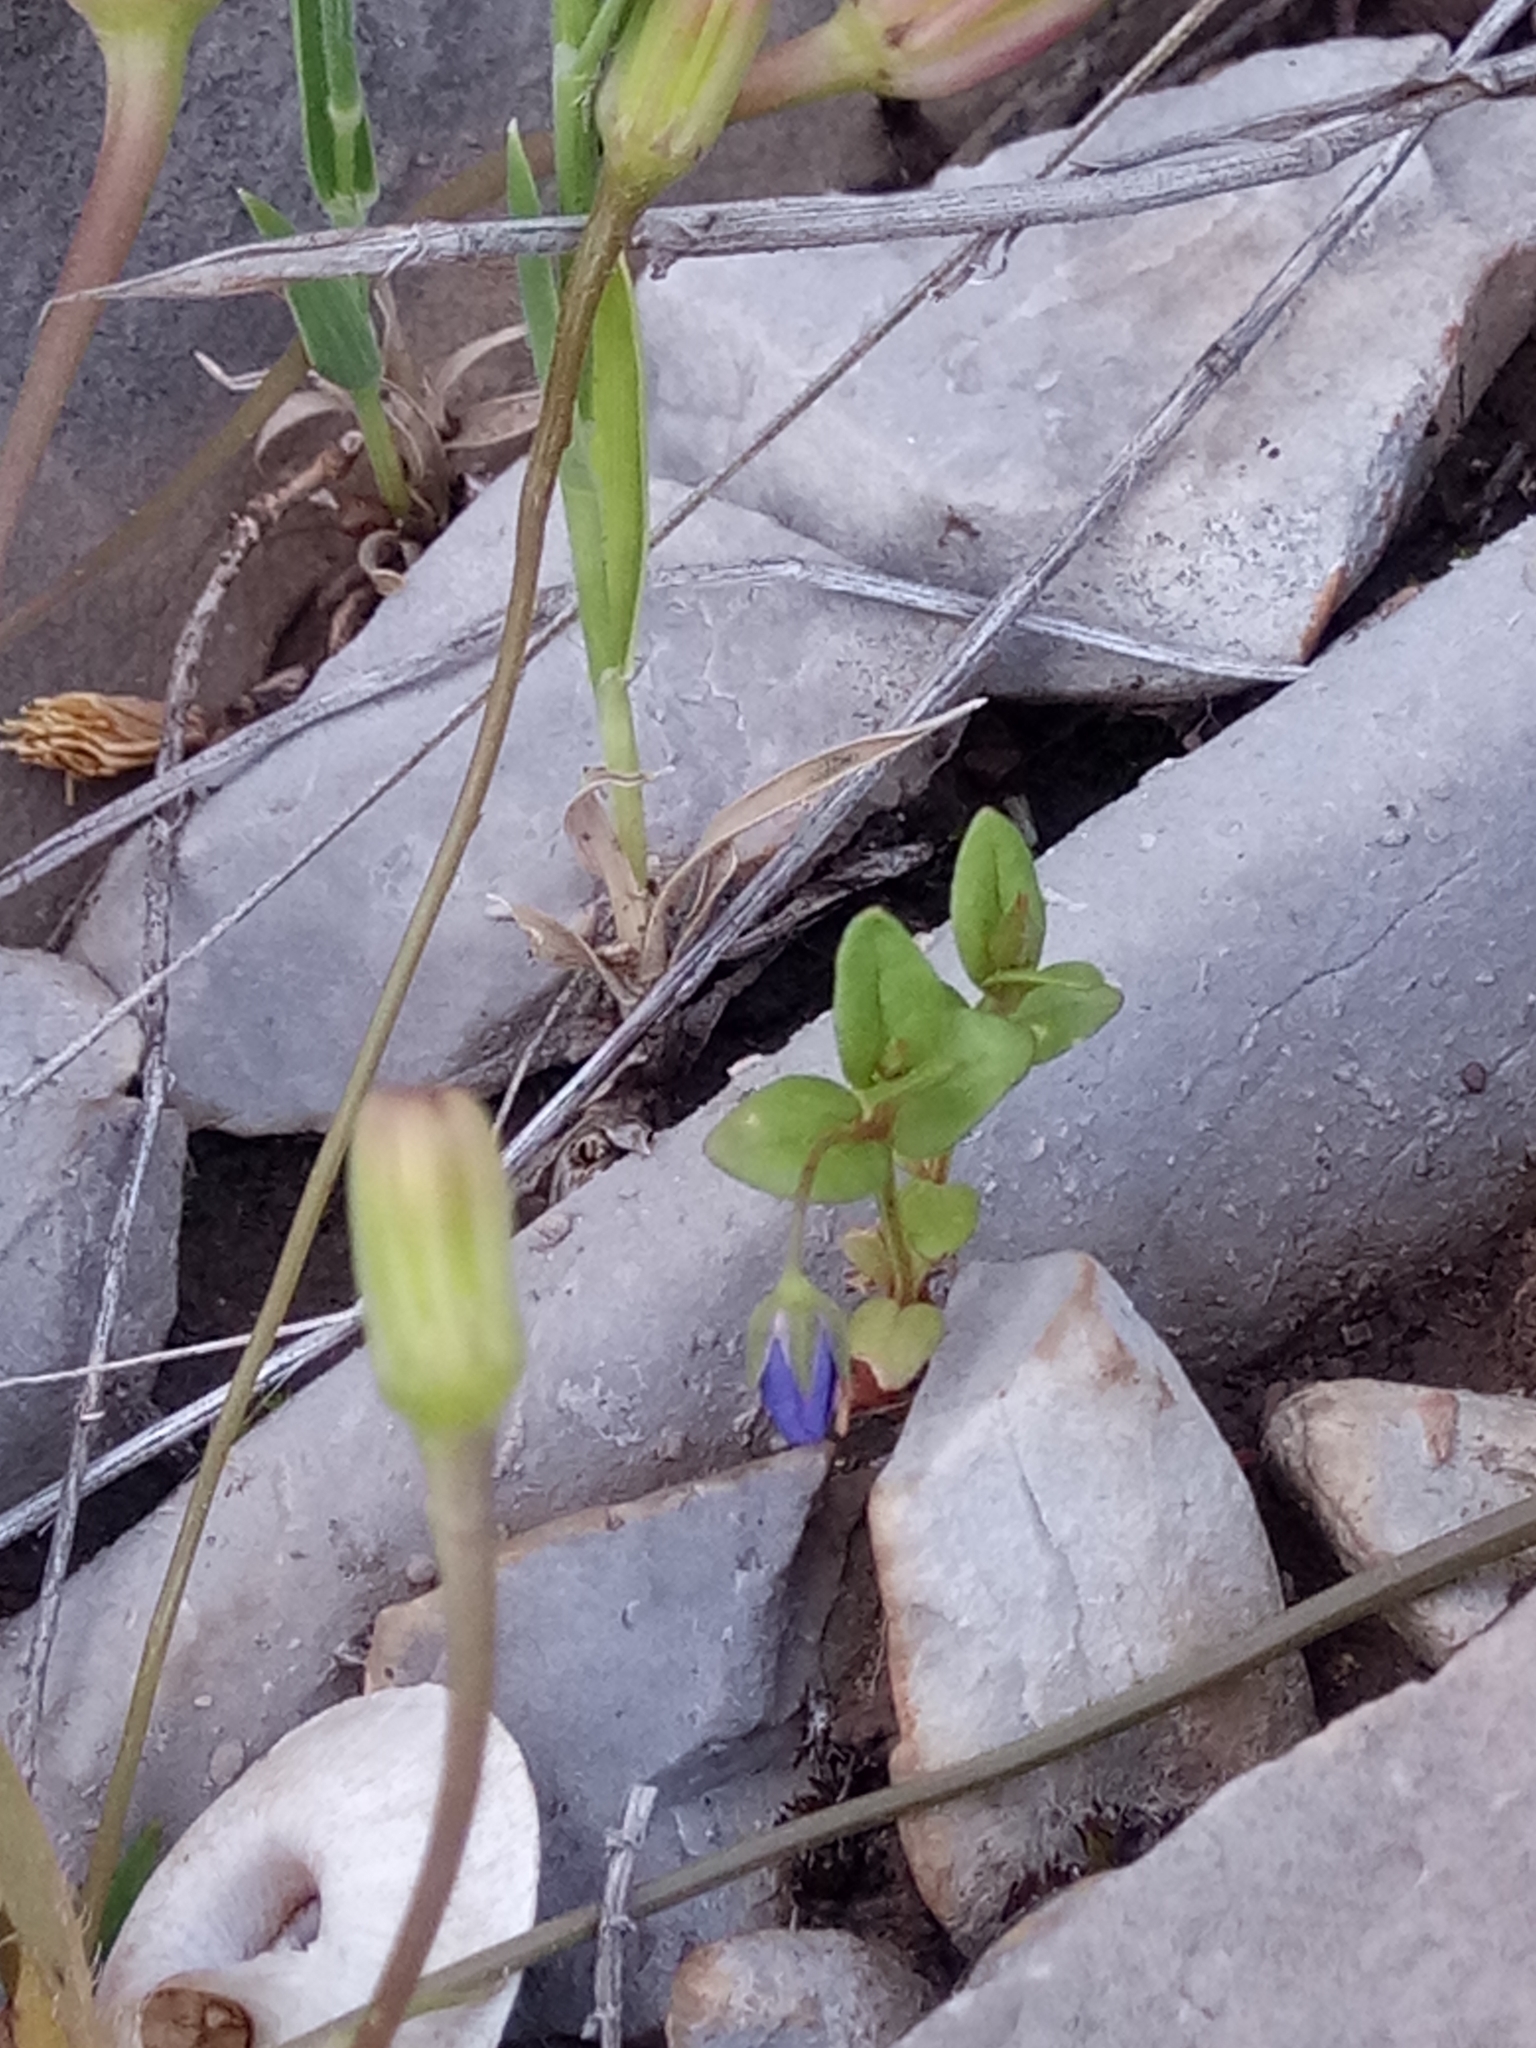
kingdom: Plantae
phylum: Tracheophyta
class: Magnoliopsida
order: Ericales
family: Primulaceae
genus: Lysimachia
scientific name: Lysimachia loeflingii
